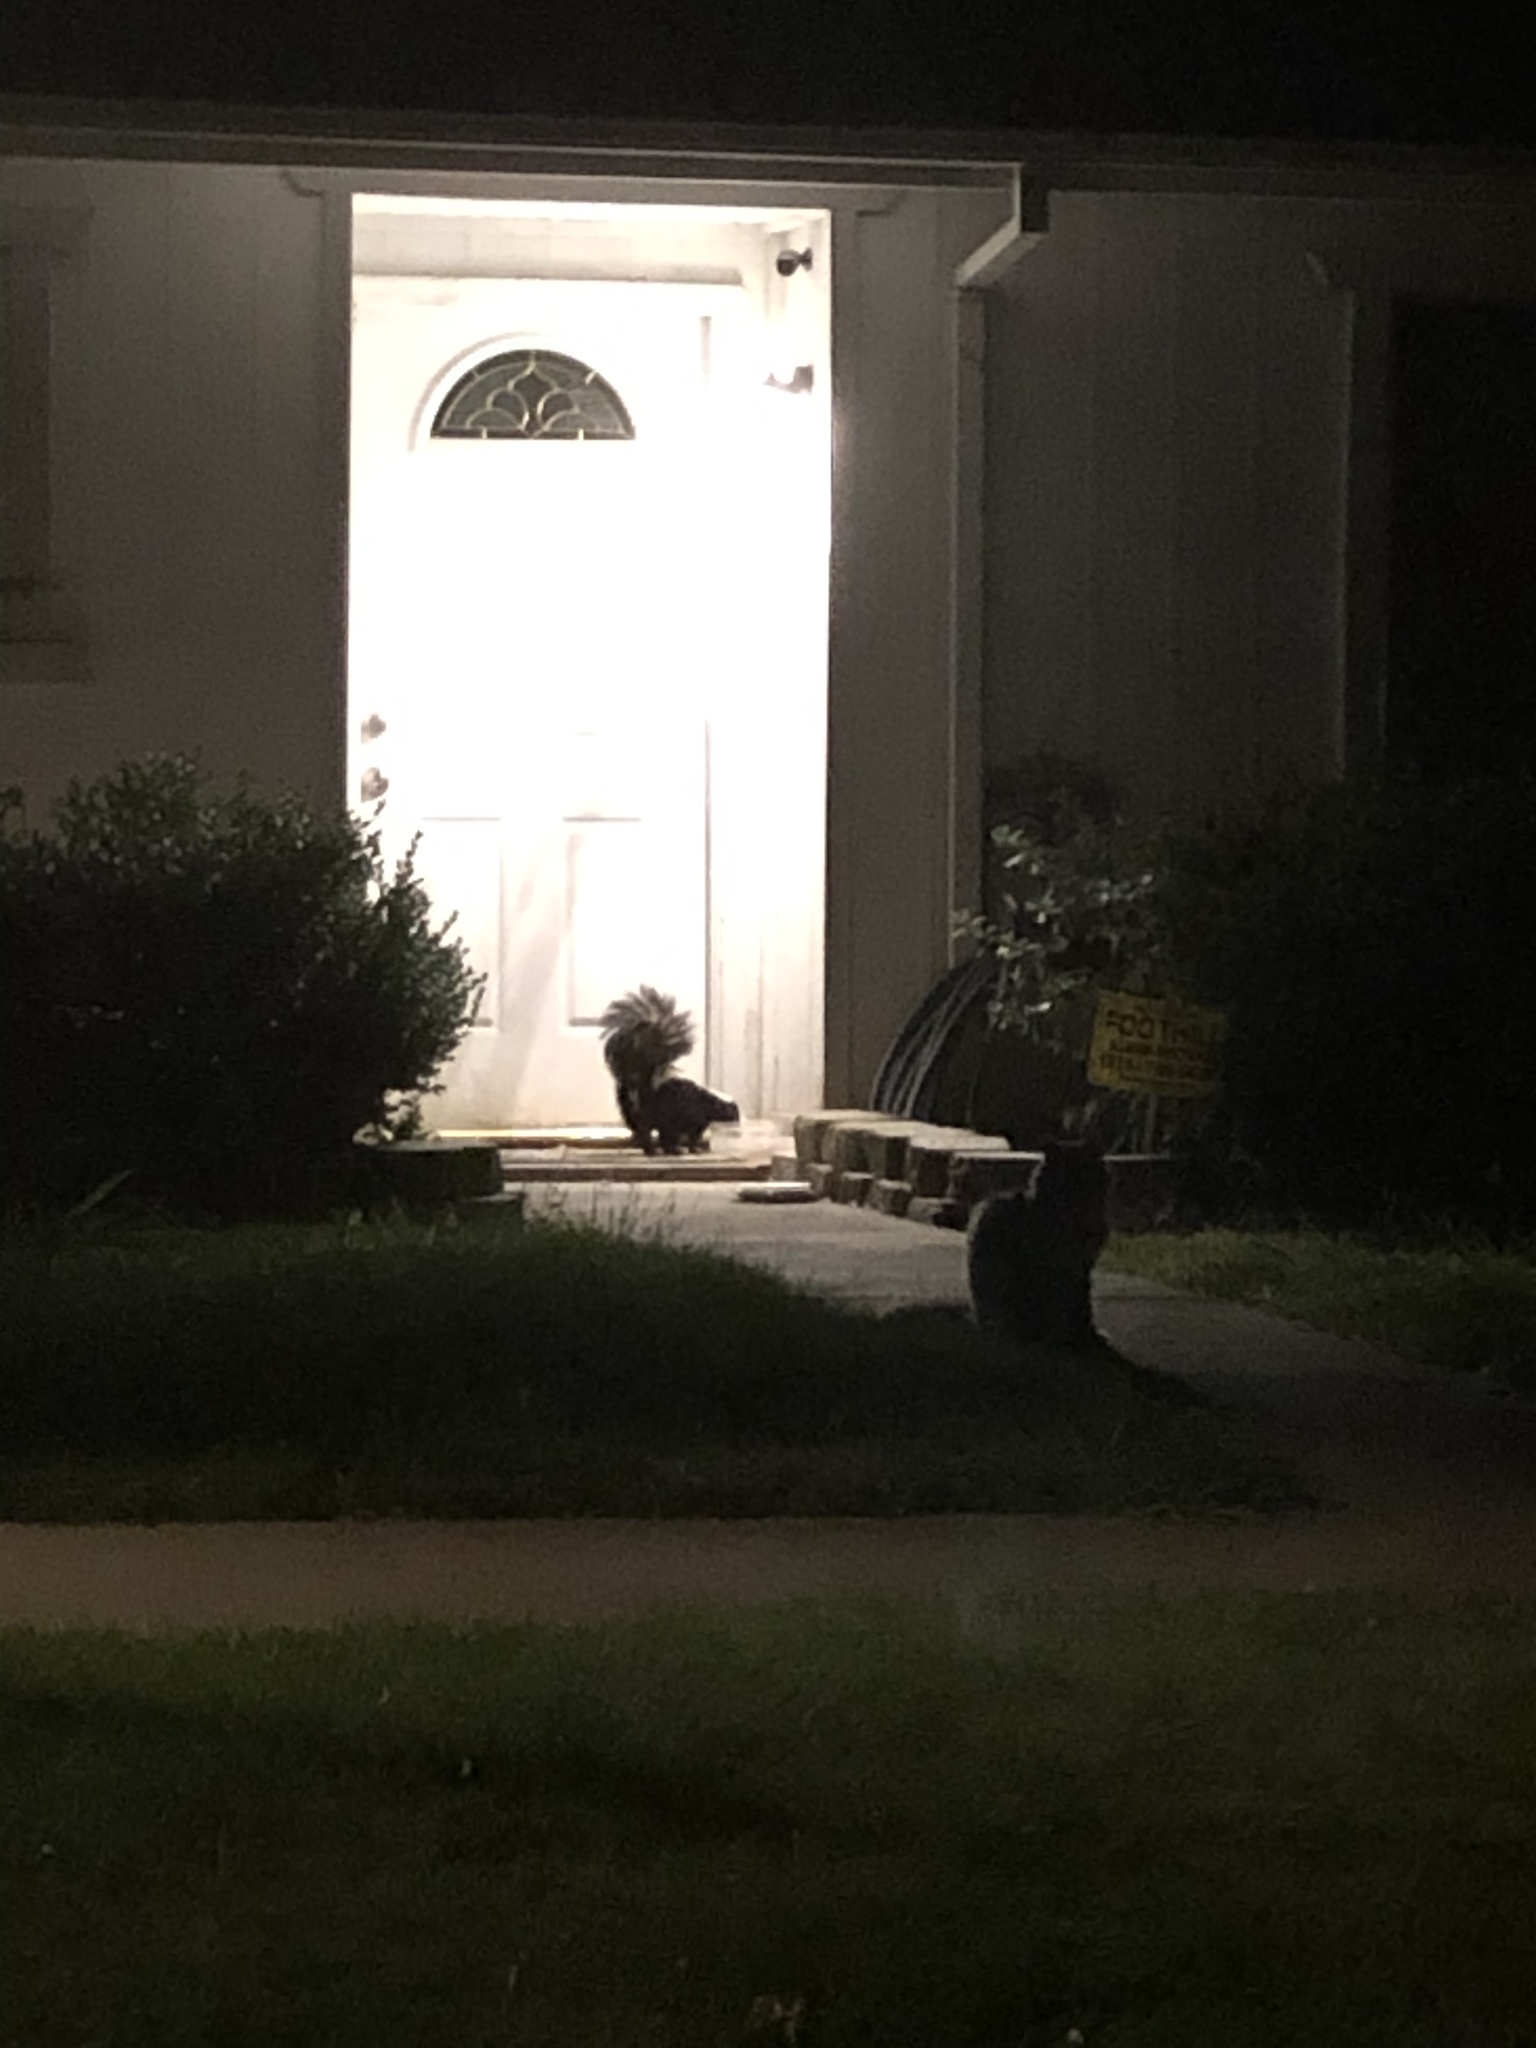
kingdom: Animalia
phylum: Chordata
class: Mammalia
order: Carnivora
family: Mephitidae
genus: Mephitis
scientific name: Mephitis mephitis
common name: Striped skunk
